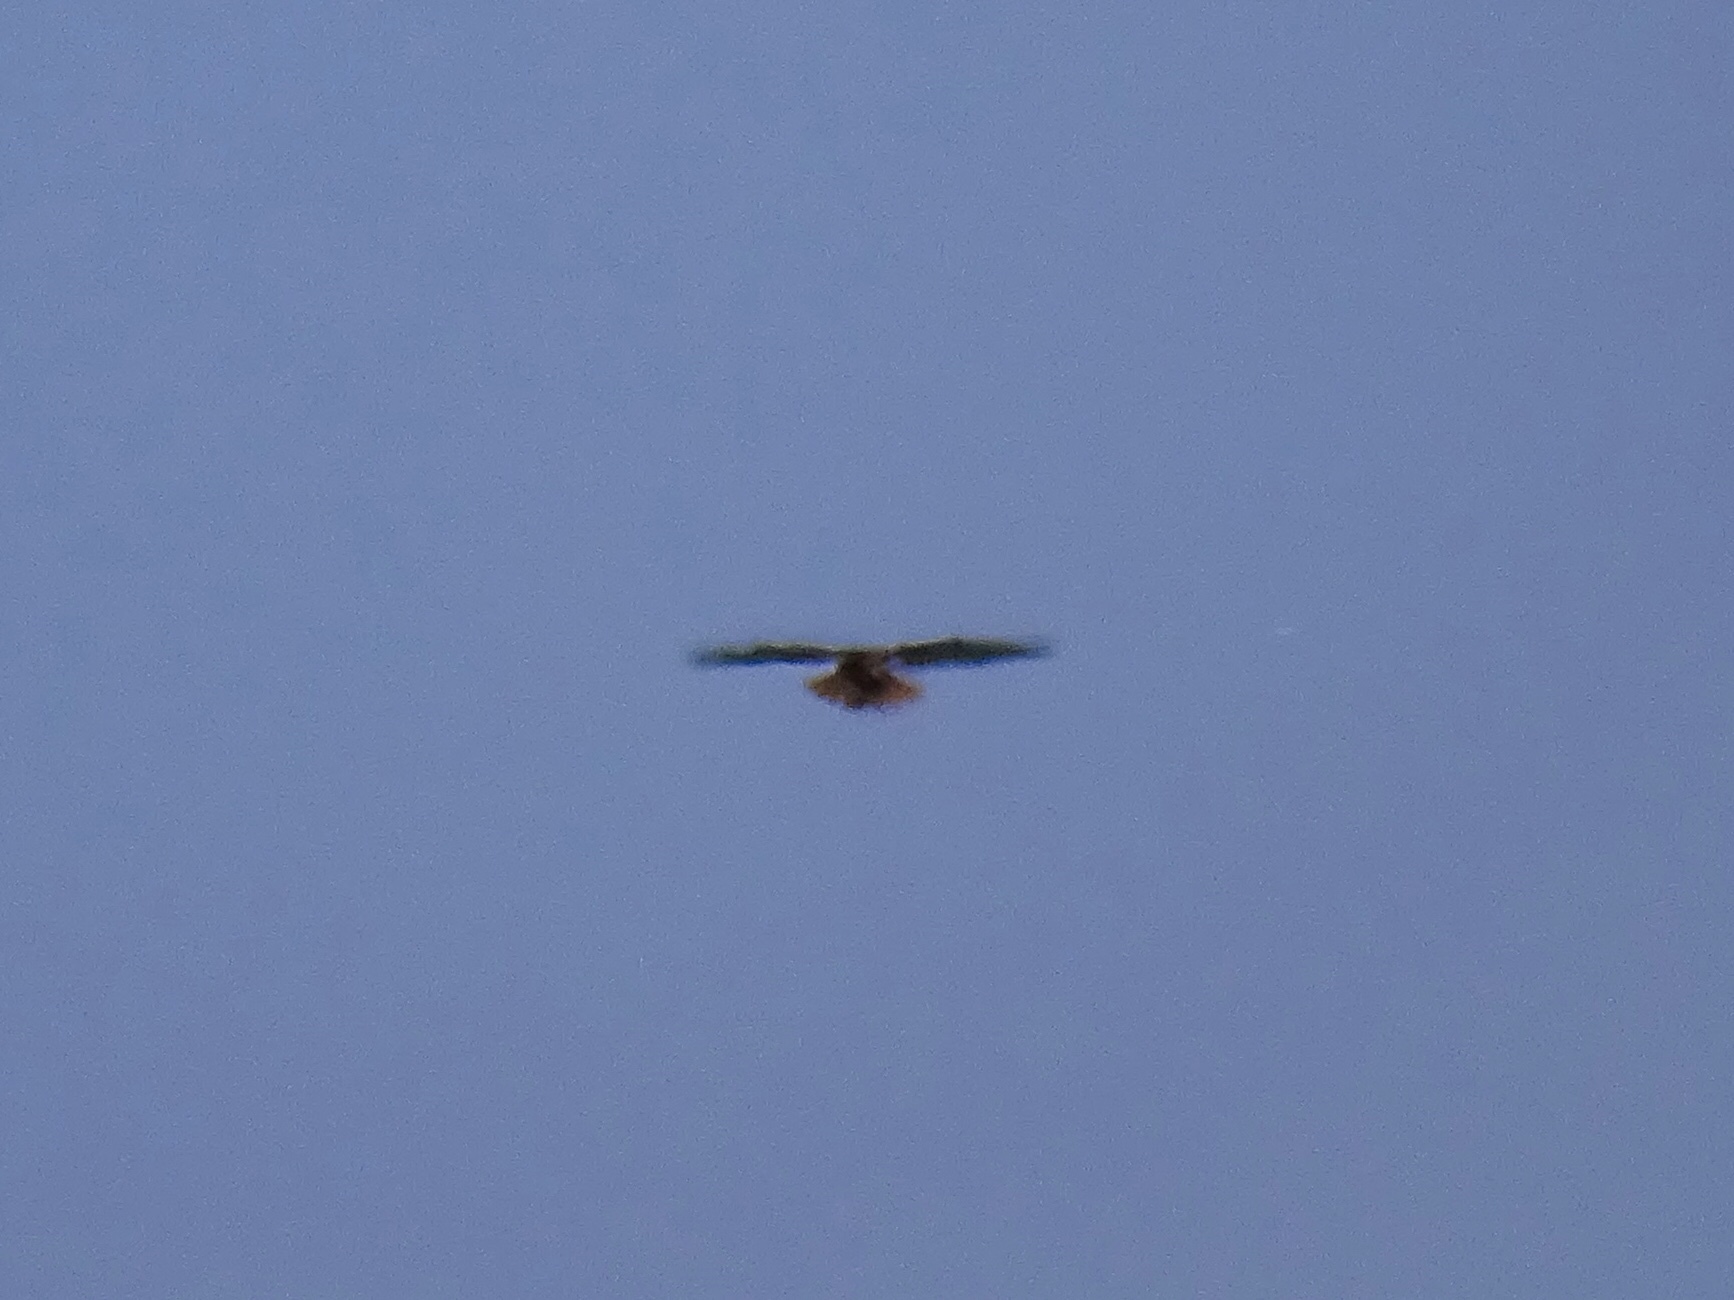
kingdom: Animalia
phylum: Chordata
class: Aves
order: Accipitriformes
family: Accipitridae
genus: Buteo
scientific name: Buteo jamaicensis
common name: Red-tailed hawk
